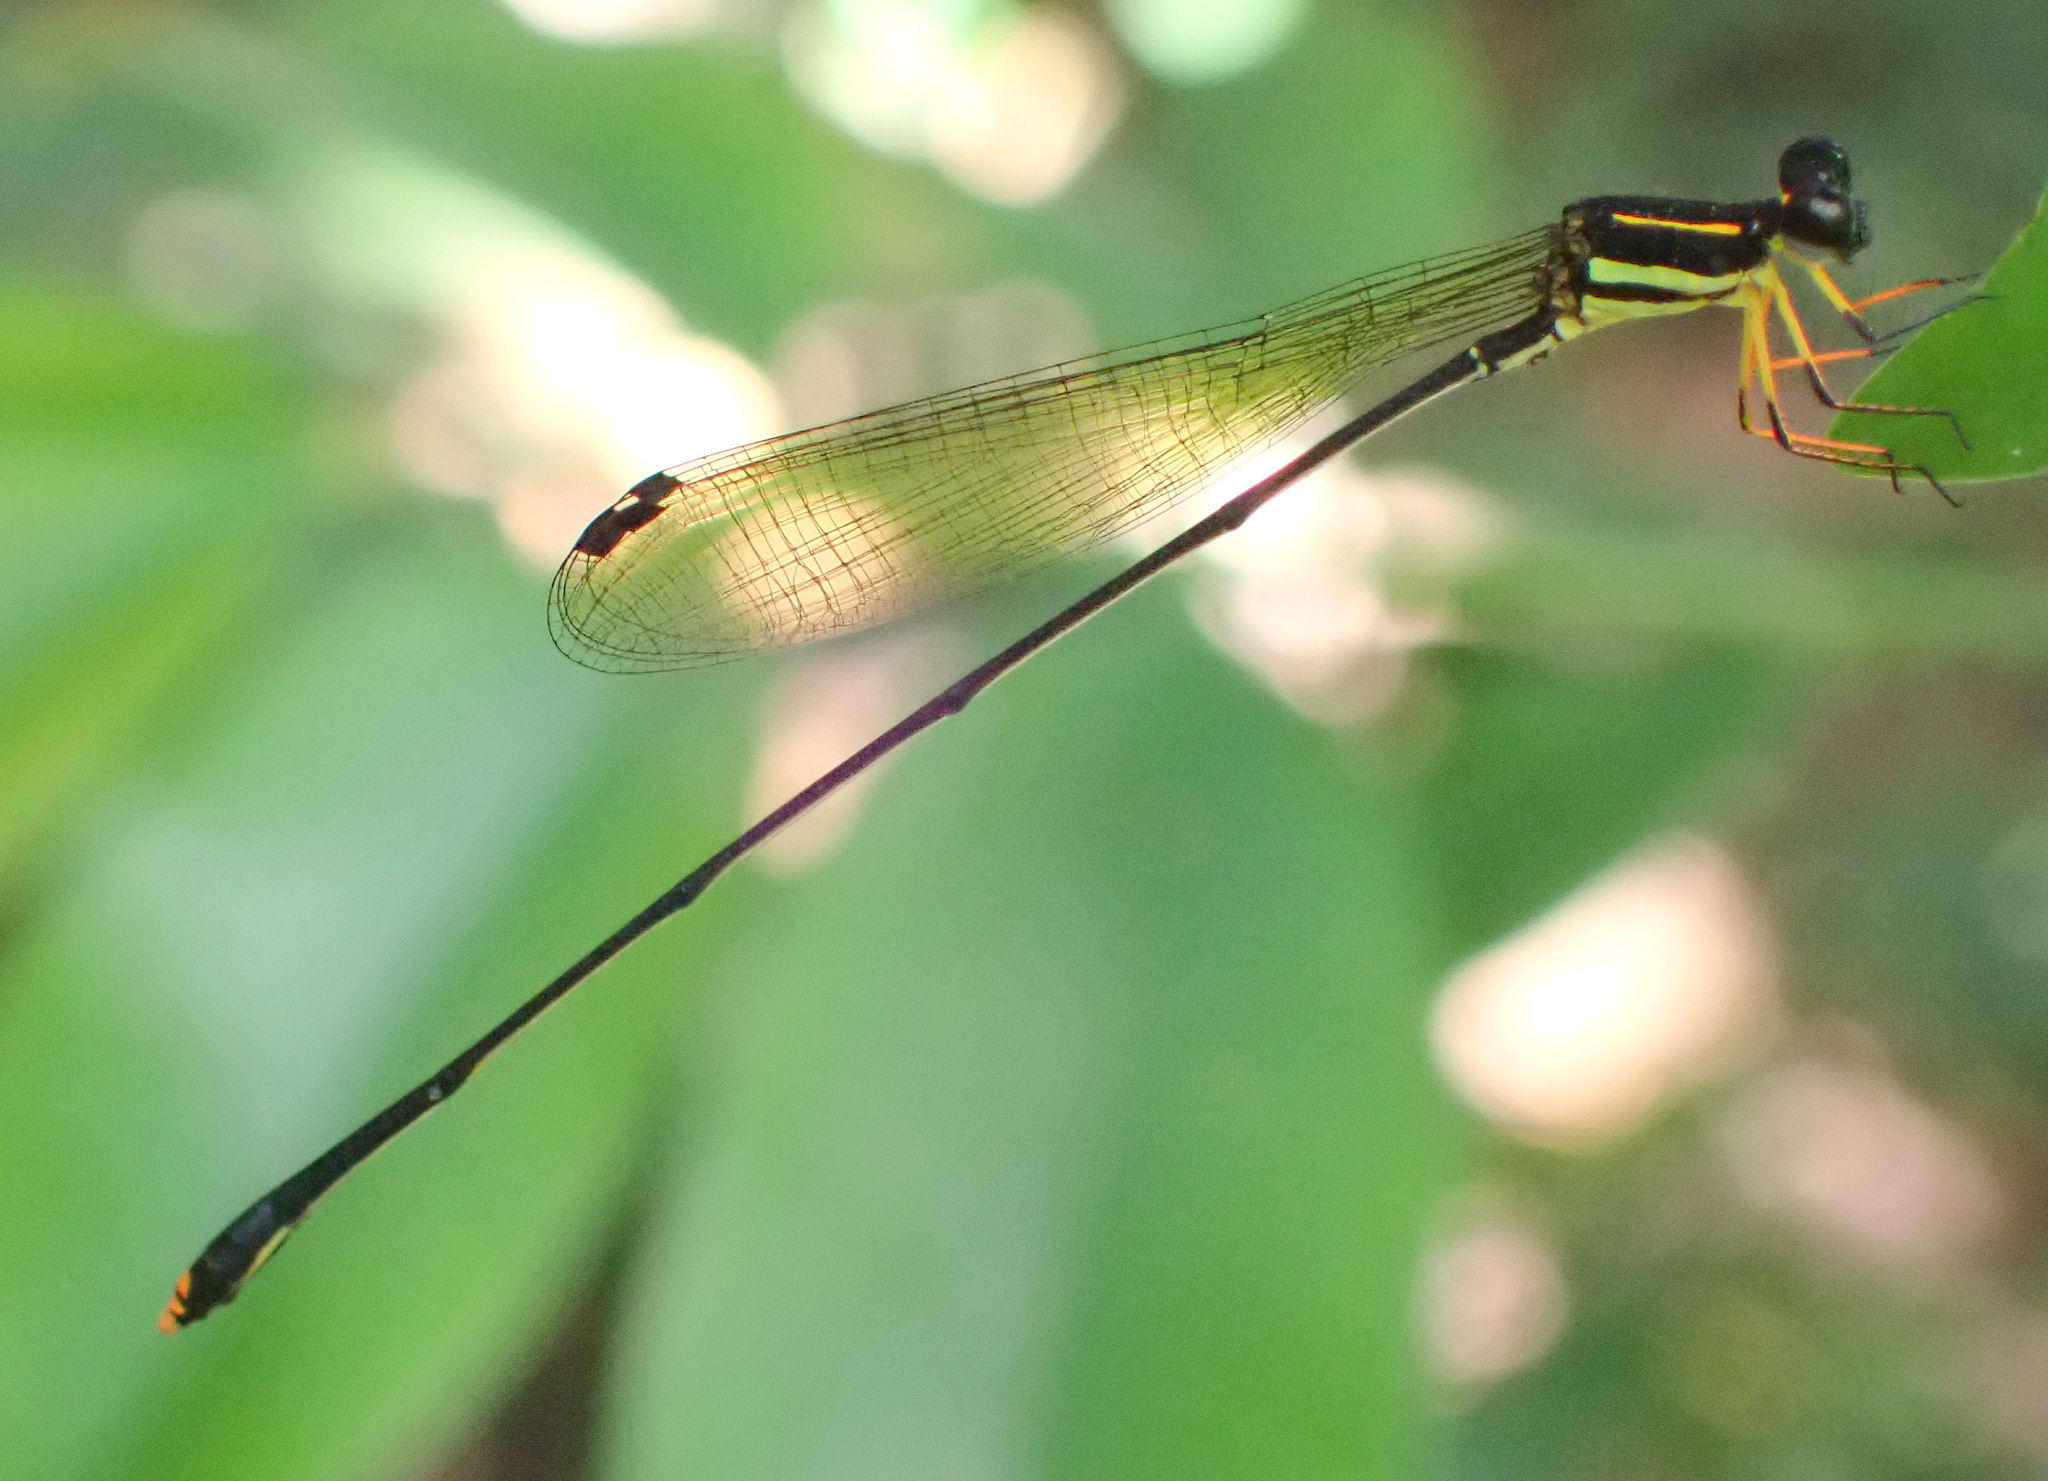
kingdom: Animalia
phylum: Arthropoda
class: Insecta
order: Odonata
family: Platycnemididae
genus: Allocnemis
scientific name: Allocnemis elongata
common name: Orange yellowwing
